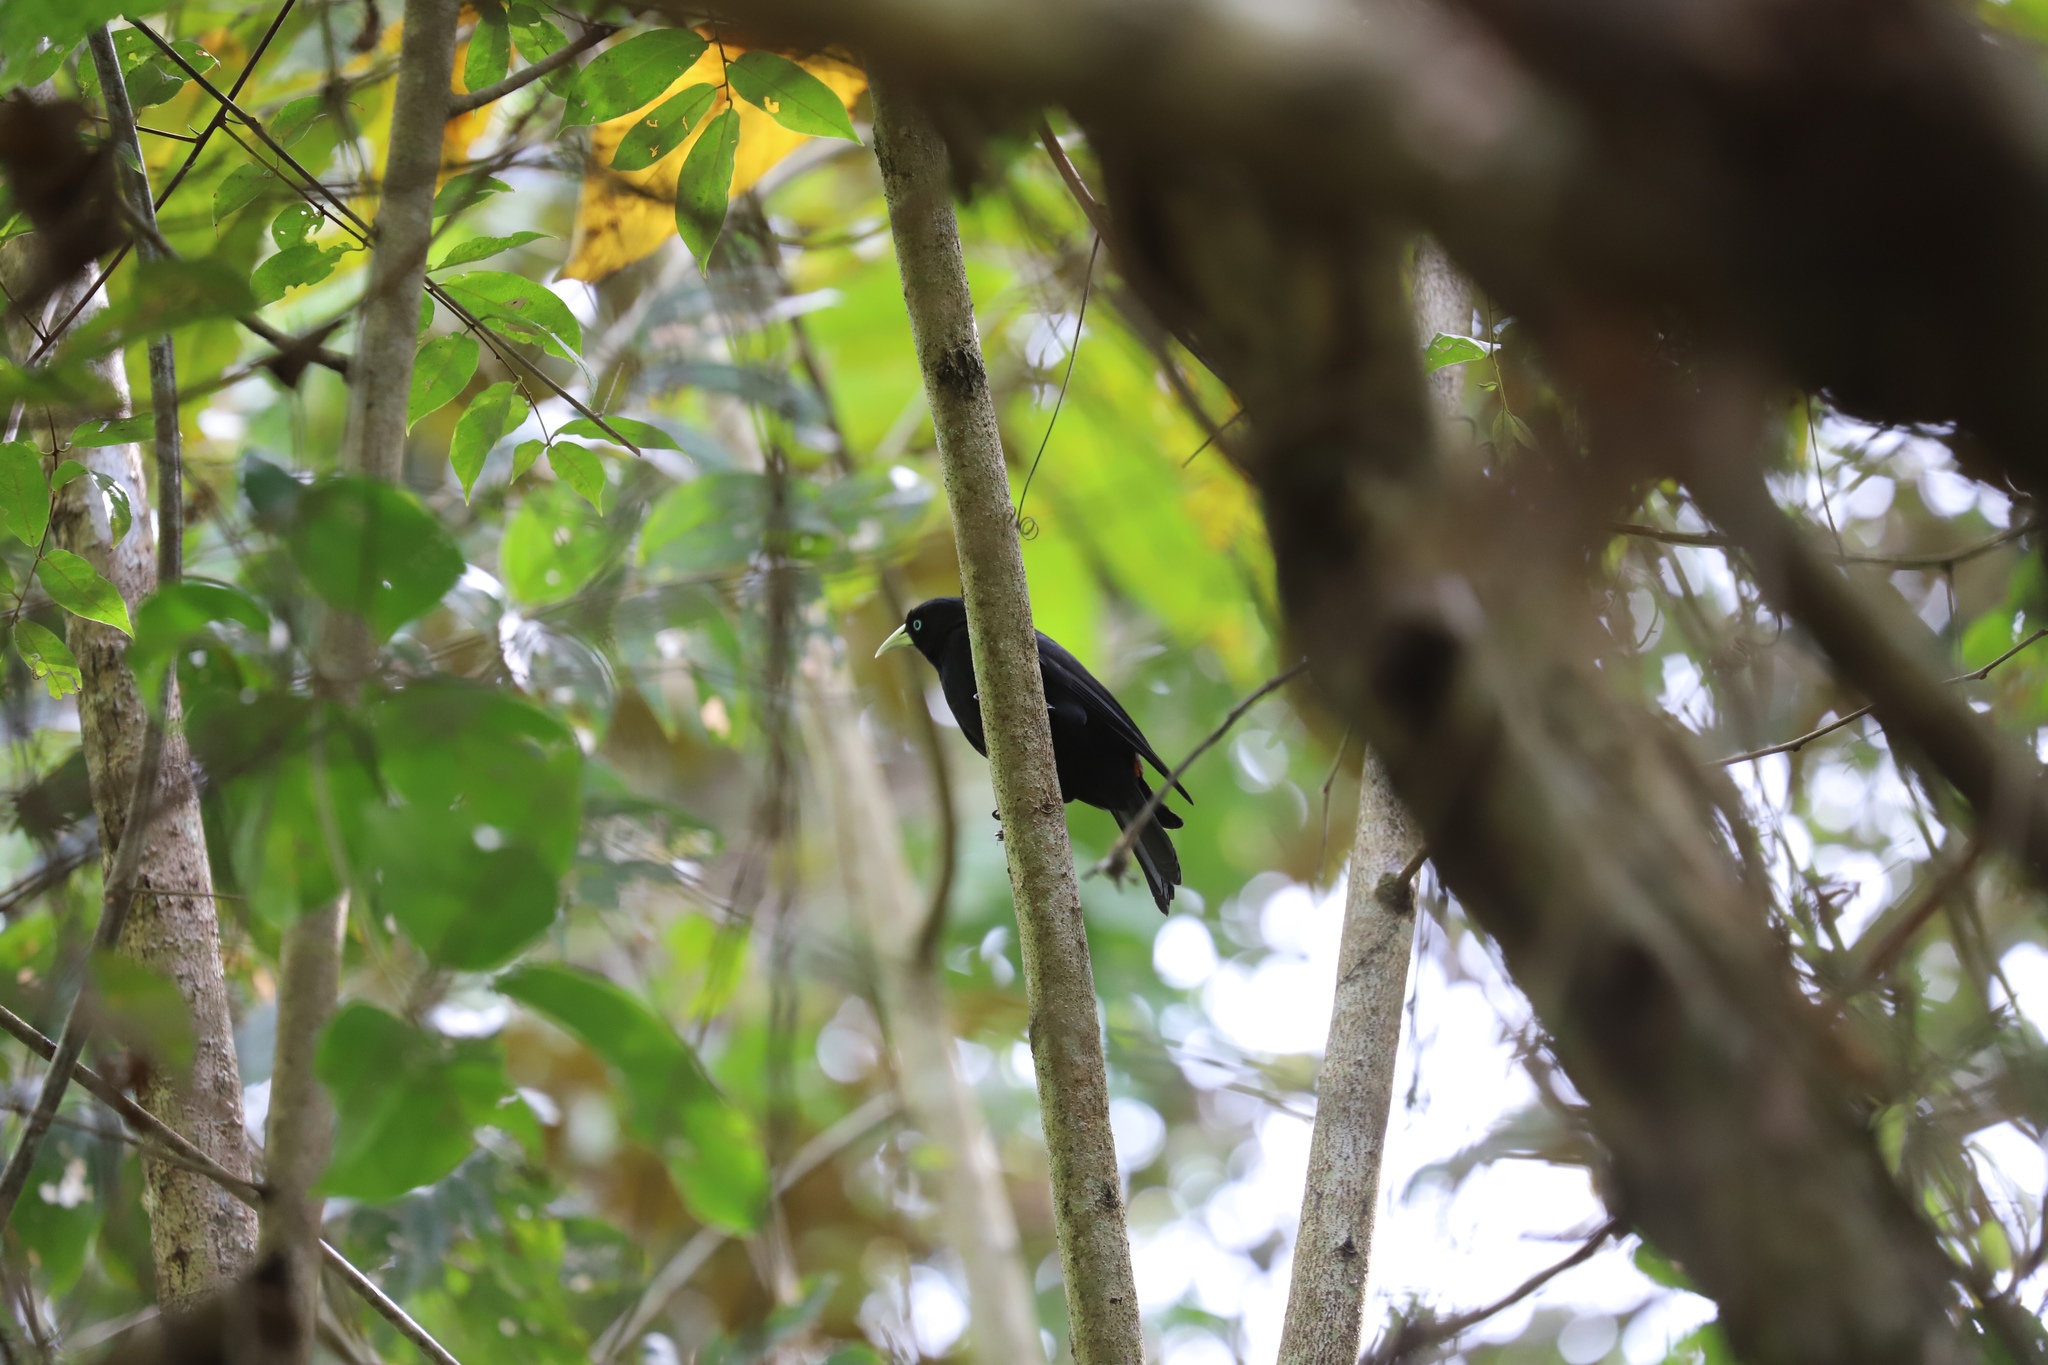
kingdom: Animalia
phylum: Chordata
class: Aves
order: Passeriformes
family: Icteridae
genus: Cacicus
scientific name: Cacicus uropygialis
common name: Scarlet-rumped cacique
